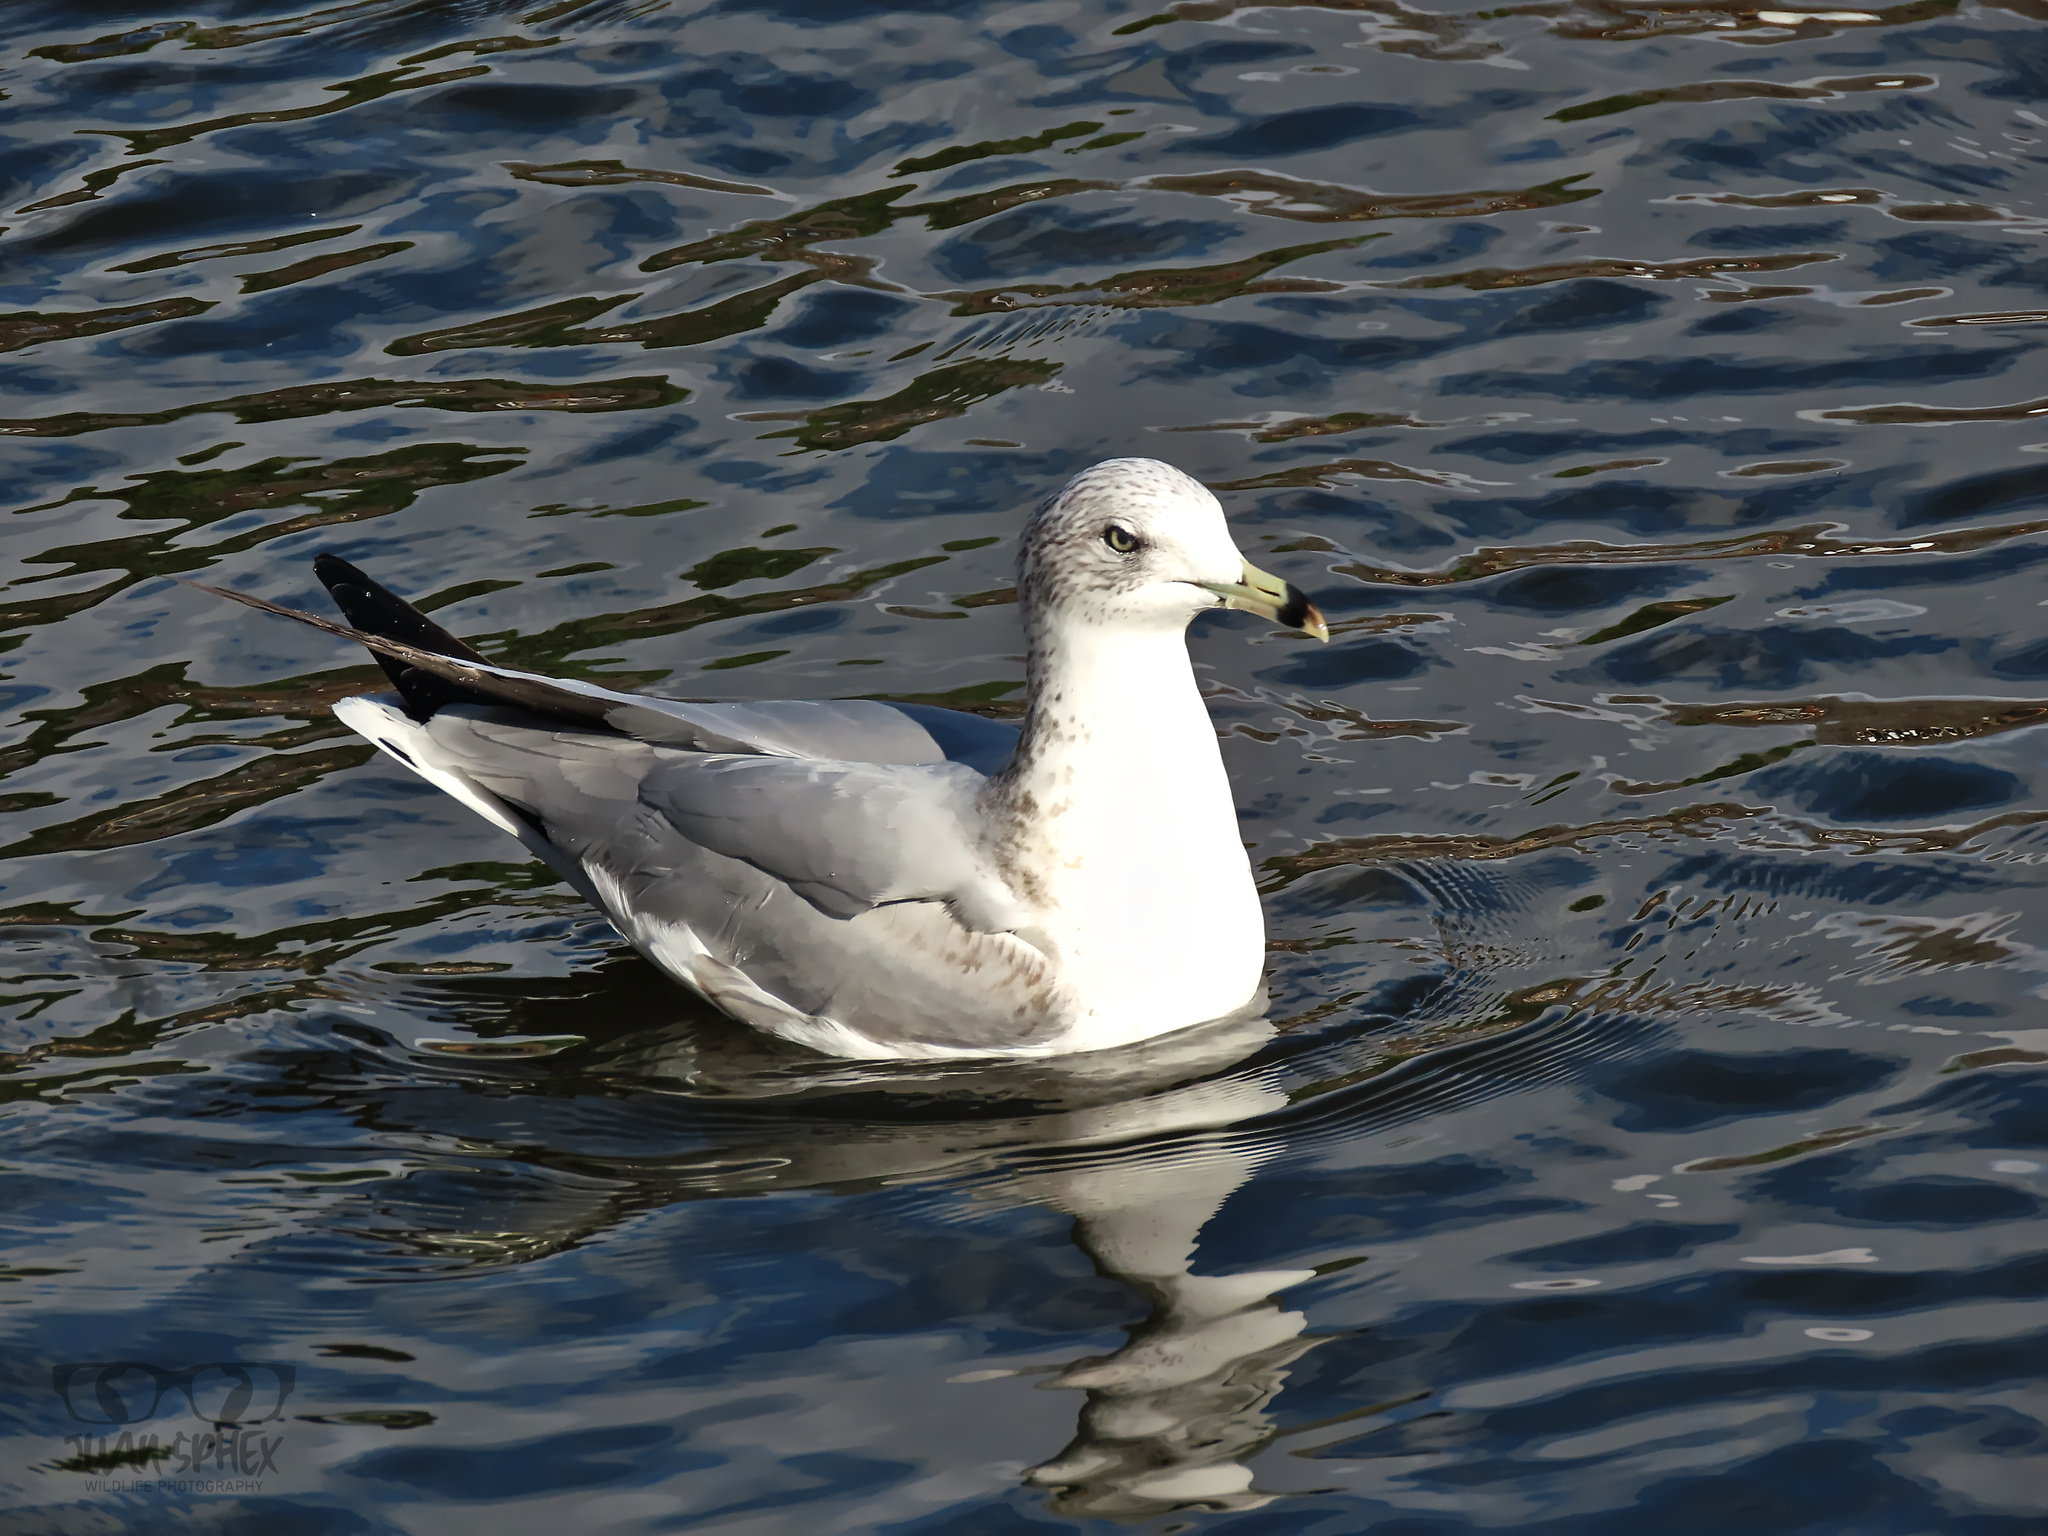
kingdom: Animalia
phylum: Chordata
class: Aves
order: Charadriiformes
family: Laridae
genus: Larus
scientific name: Larus delawarensis
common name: Ring-billed gull
